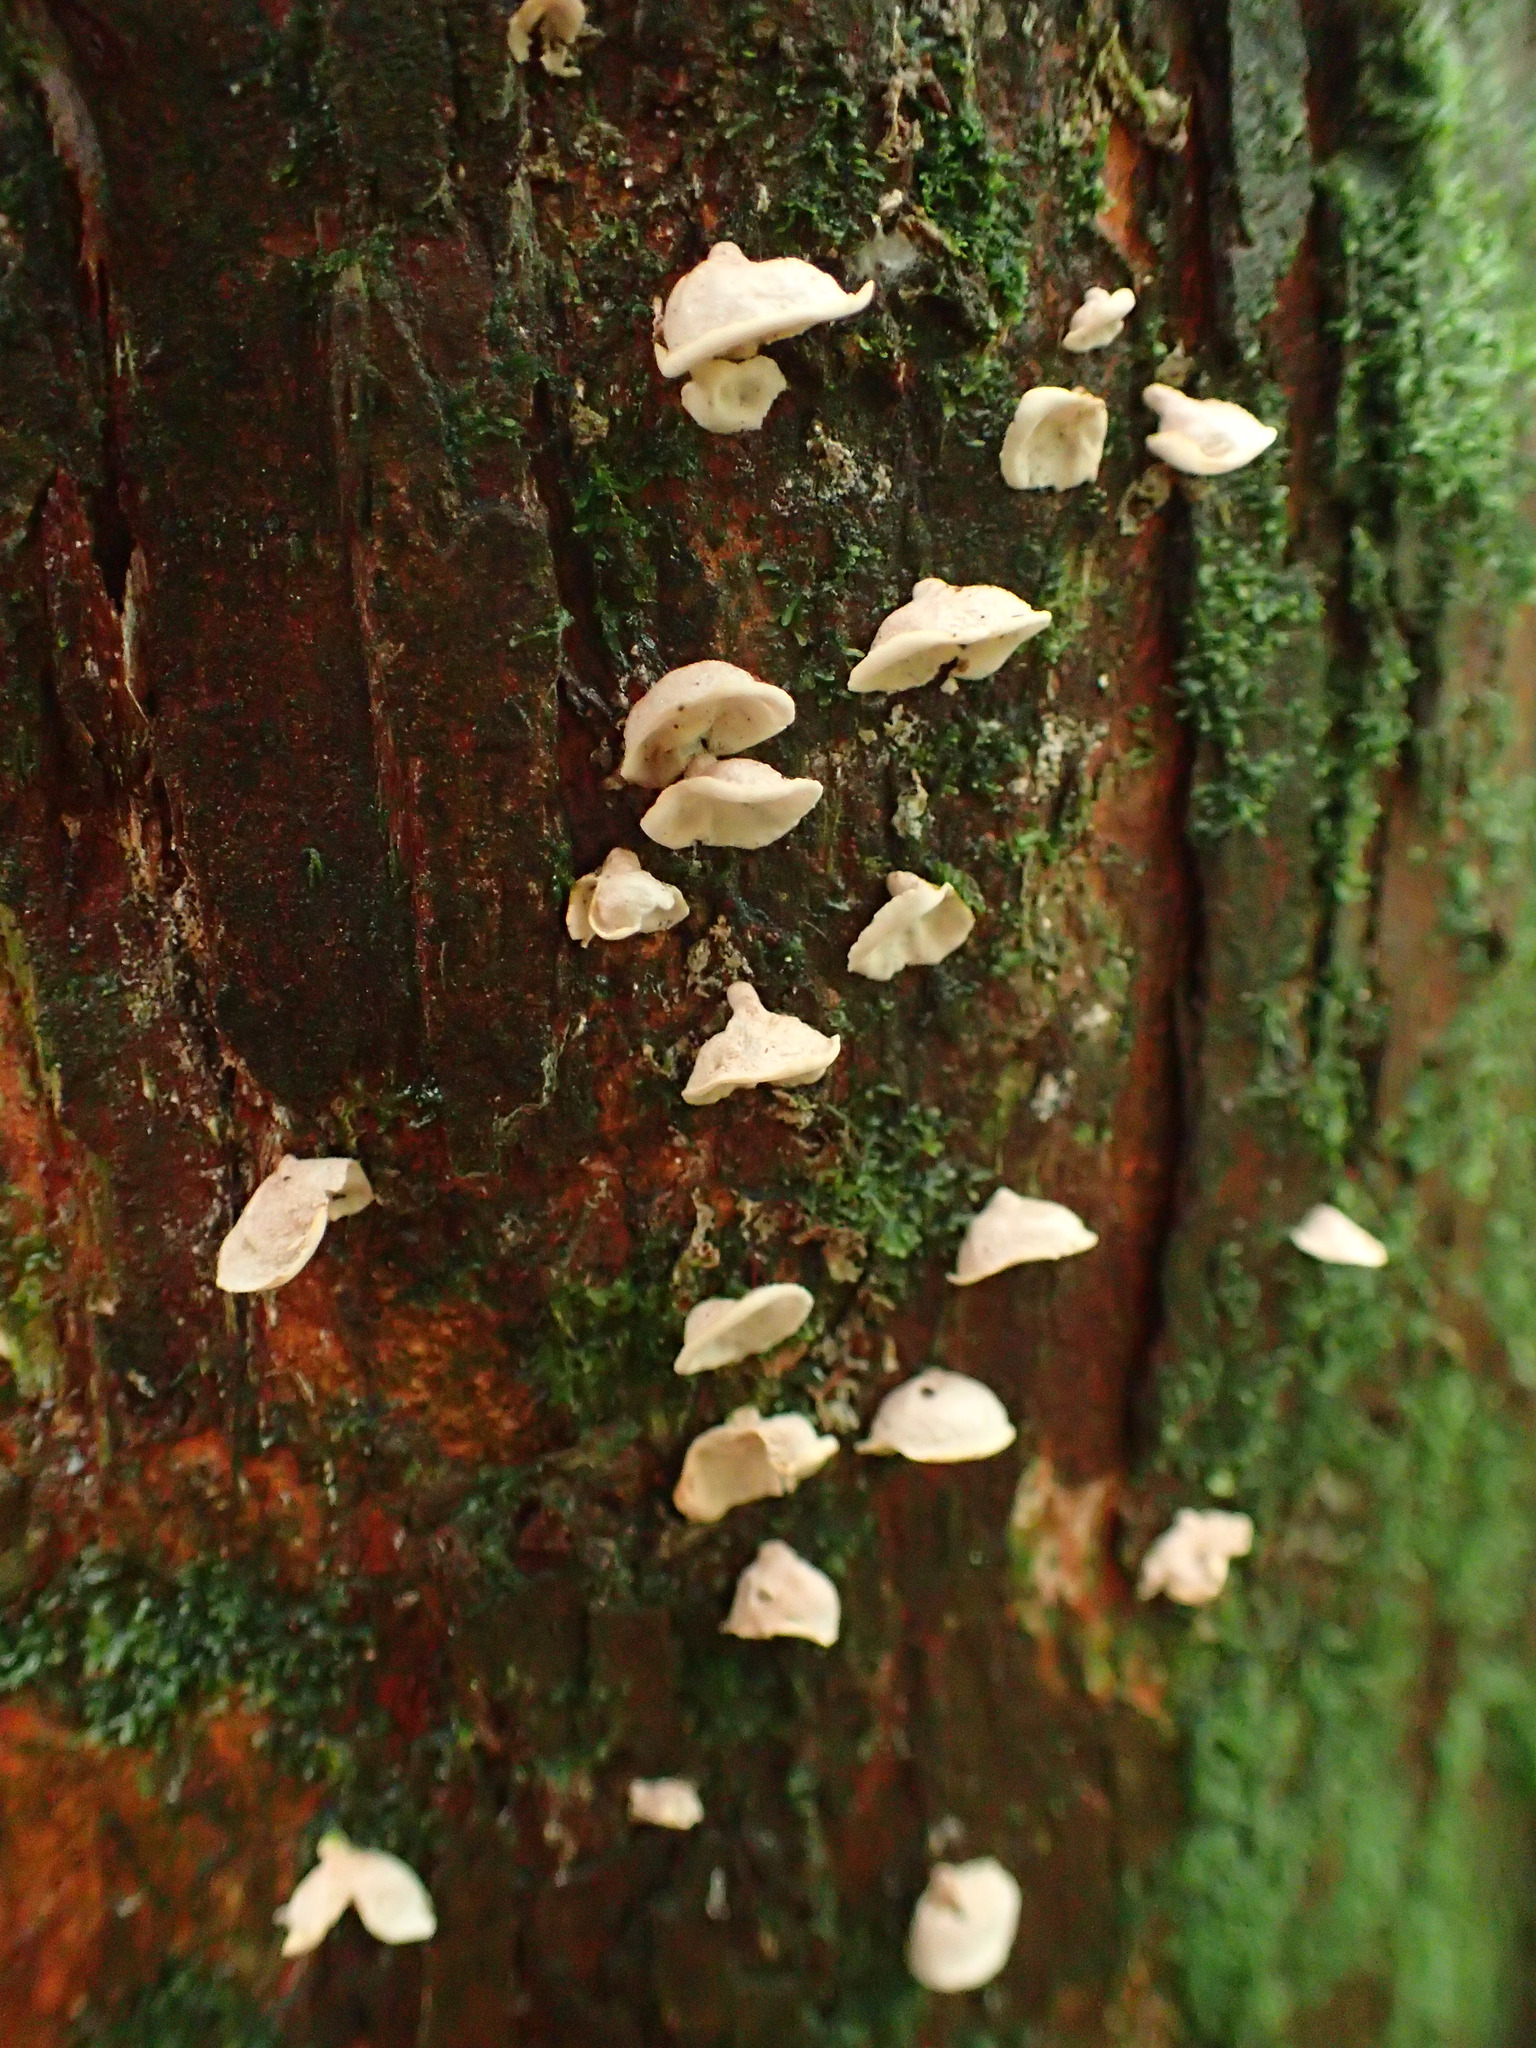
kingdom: Fungi
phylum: Basidiomycota
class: Agaricomycetes
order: Agaricales
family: Marasmiaceae
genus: Calyptella
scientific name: Calyptella totara
